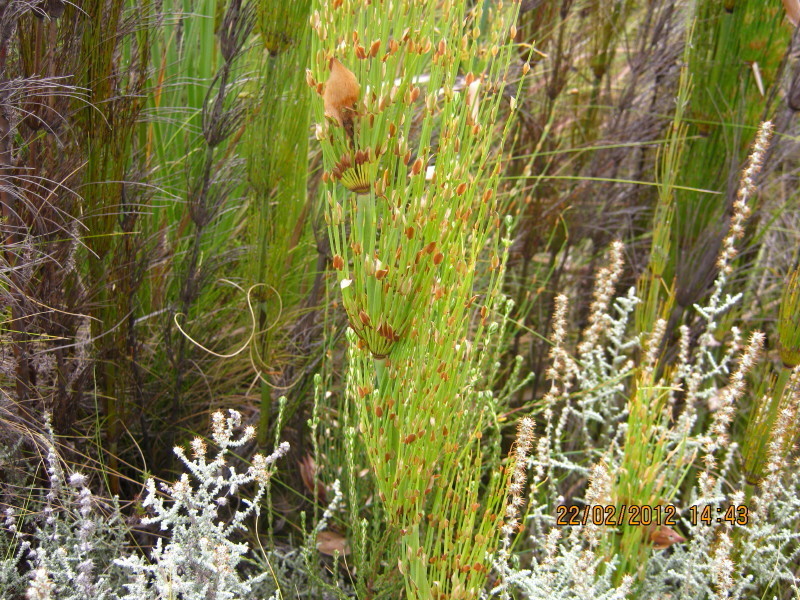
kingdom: Plantae
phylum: Tracheophyta
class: Liliopsida
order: Poales
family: Restionaceae
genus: Elegia
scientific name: Elegia capensis
